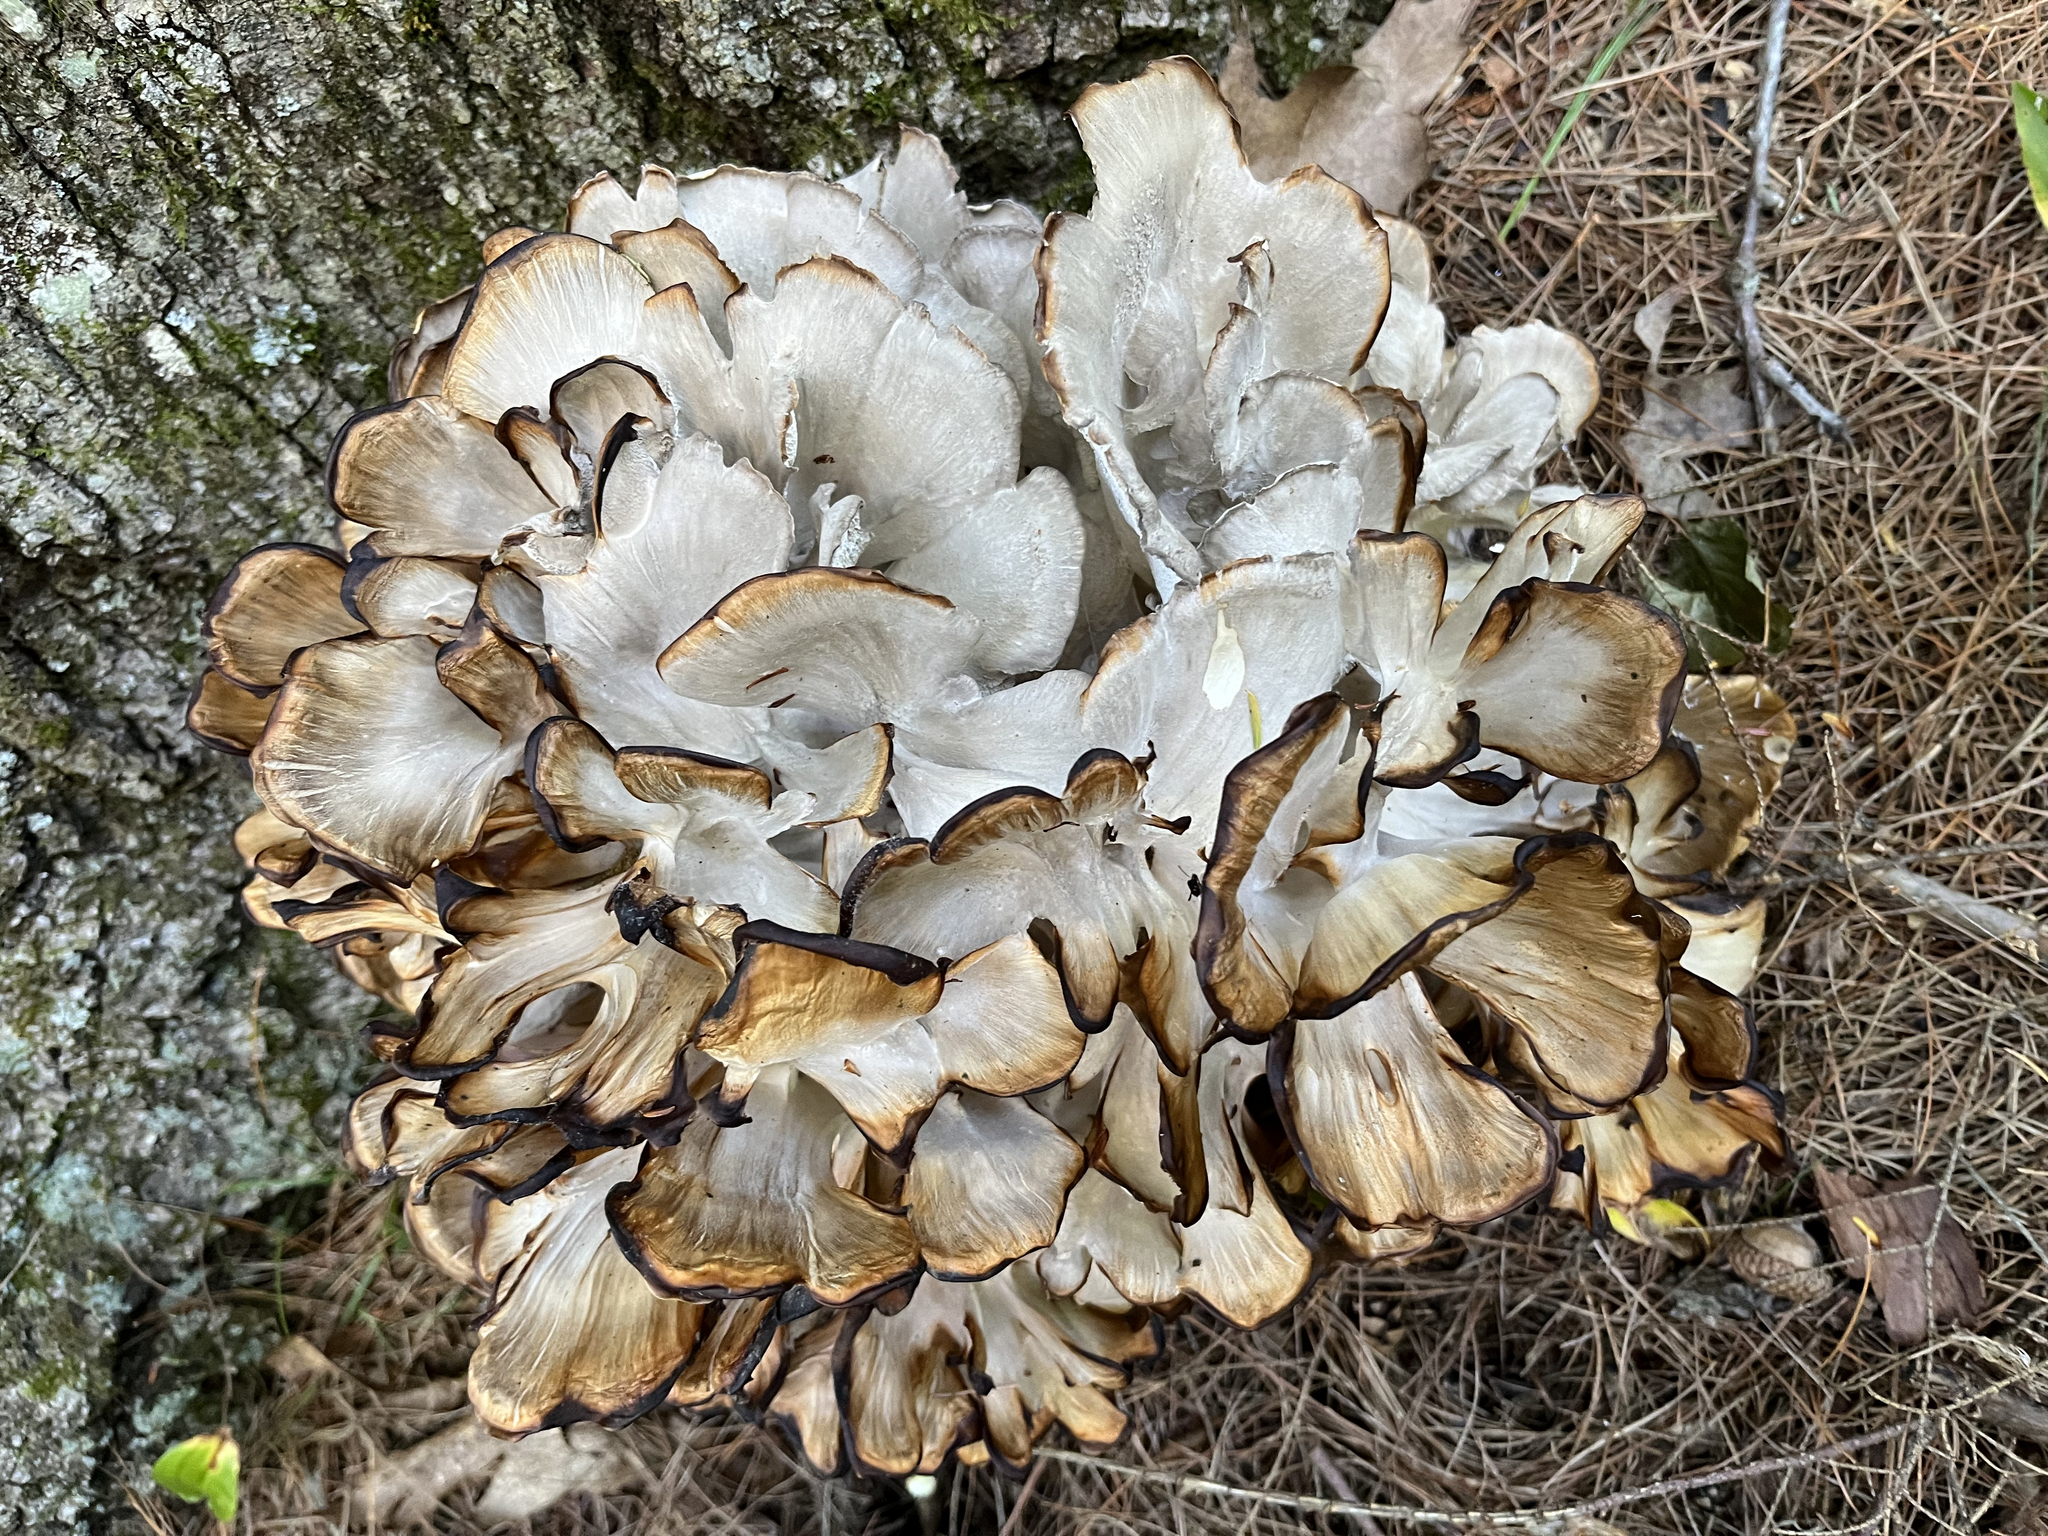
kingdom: Fungi
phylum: Basidiomycota
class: Agaricomycetes
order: Polyporales
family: Grifolaceae
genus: Grifola
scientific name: Grifola frondosa
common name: Hen of the woods
